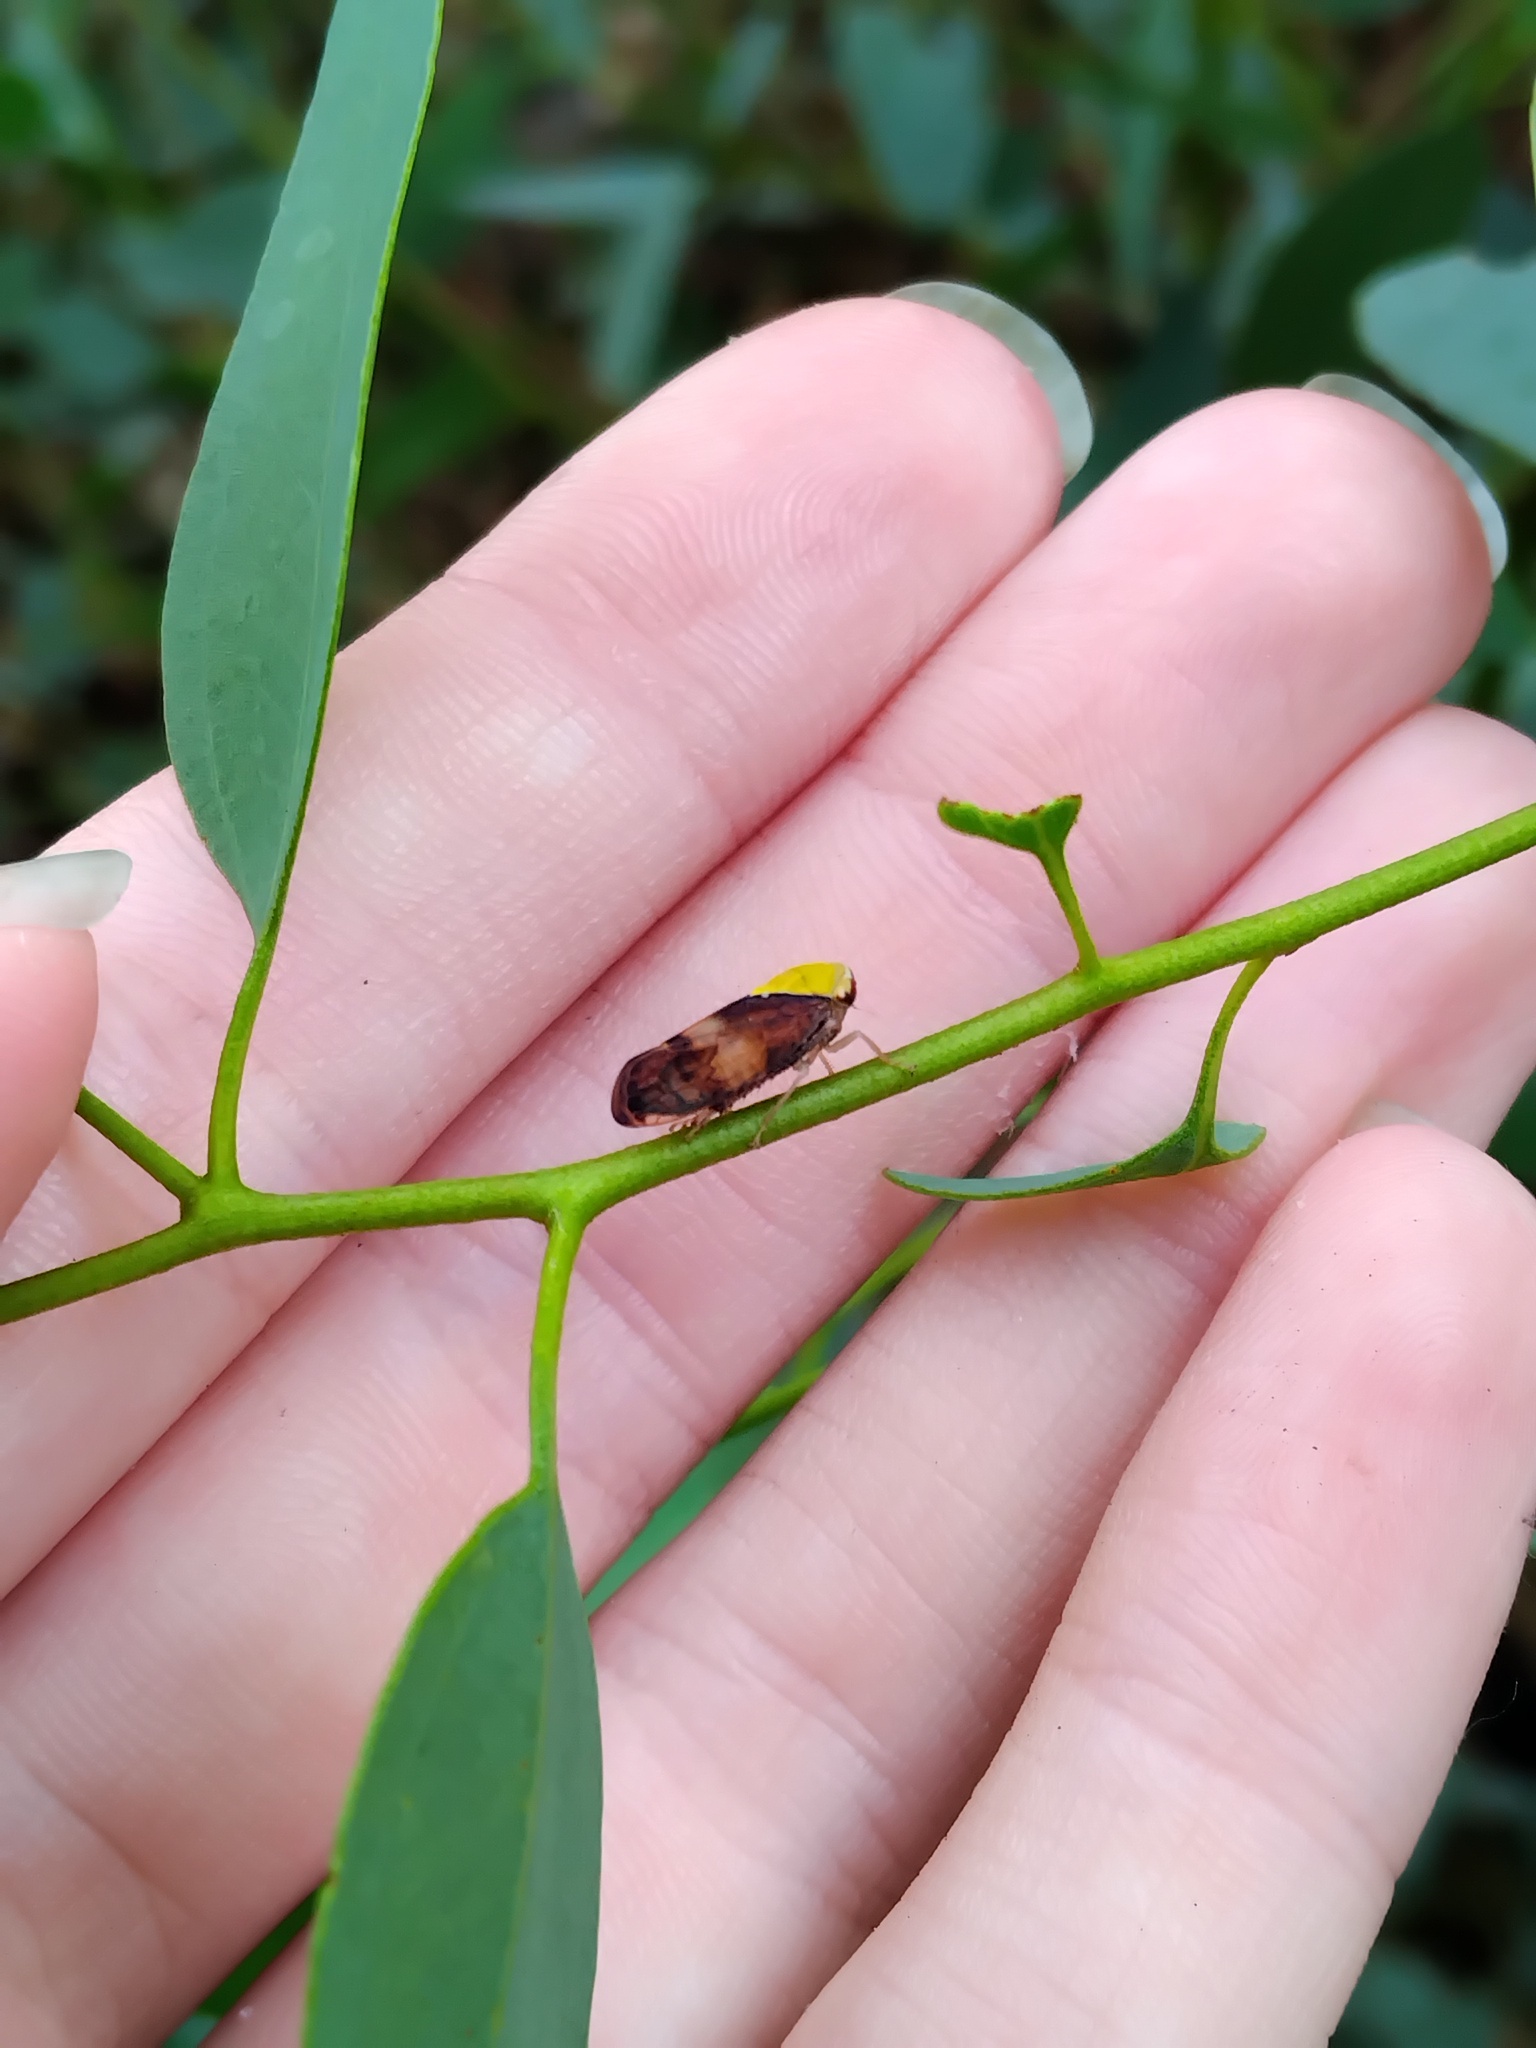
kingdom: Animalia
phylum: Arthropoda
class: Insecta
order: Hemiptera
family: Cicadellidae
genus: Brunotartessus
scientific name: Brunotartessus fulvus
